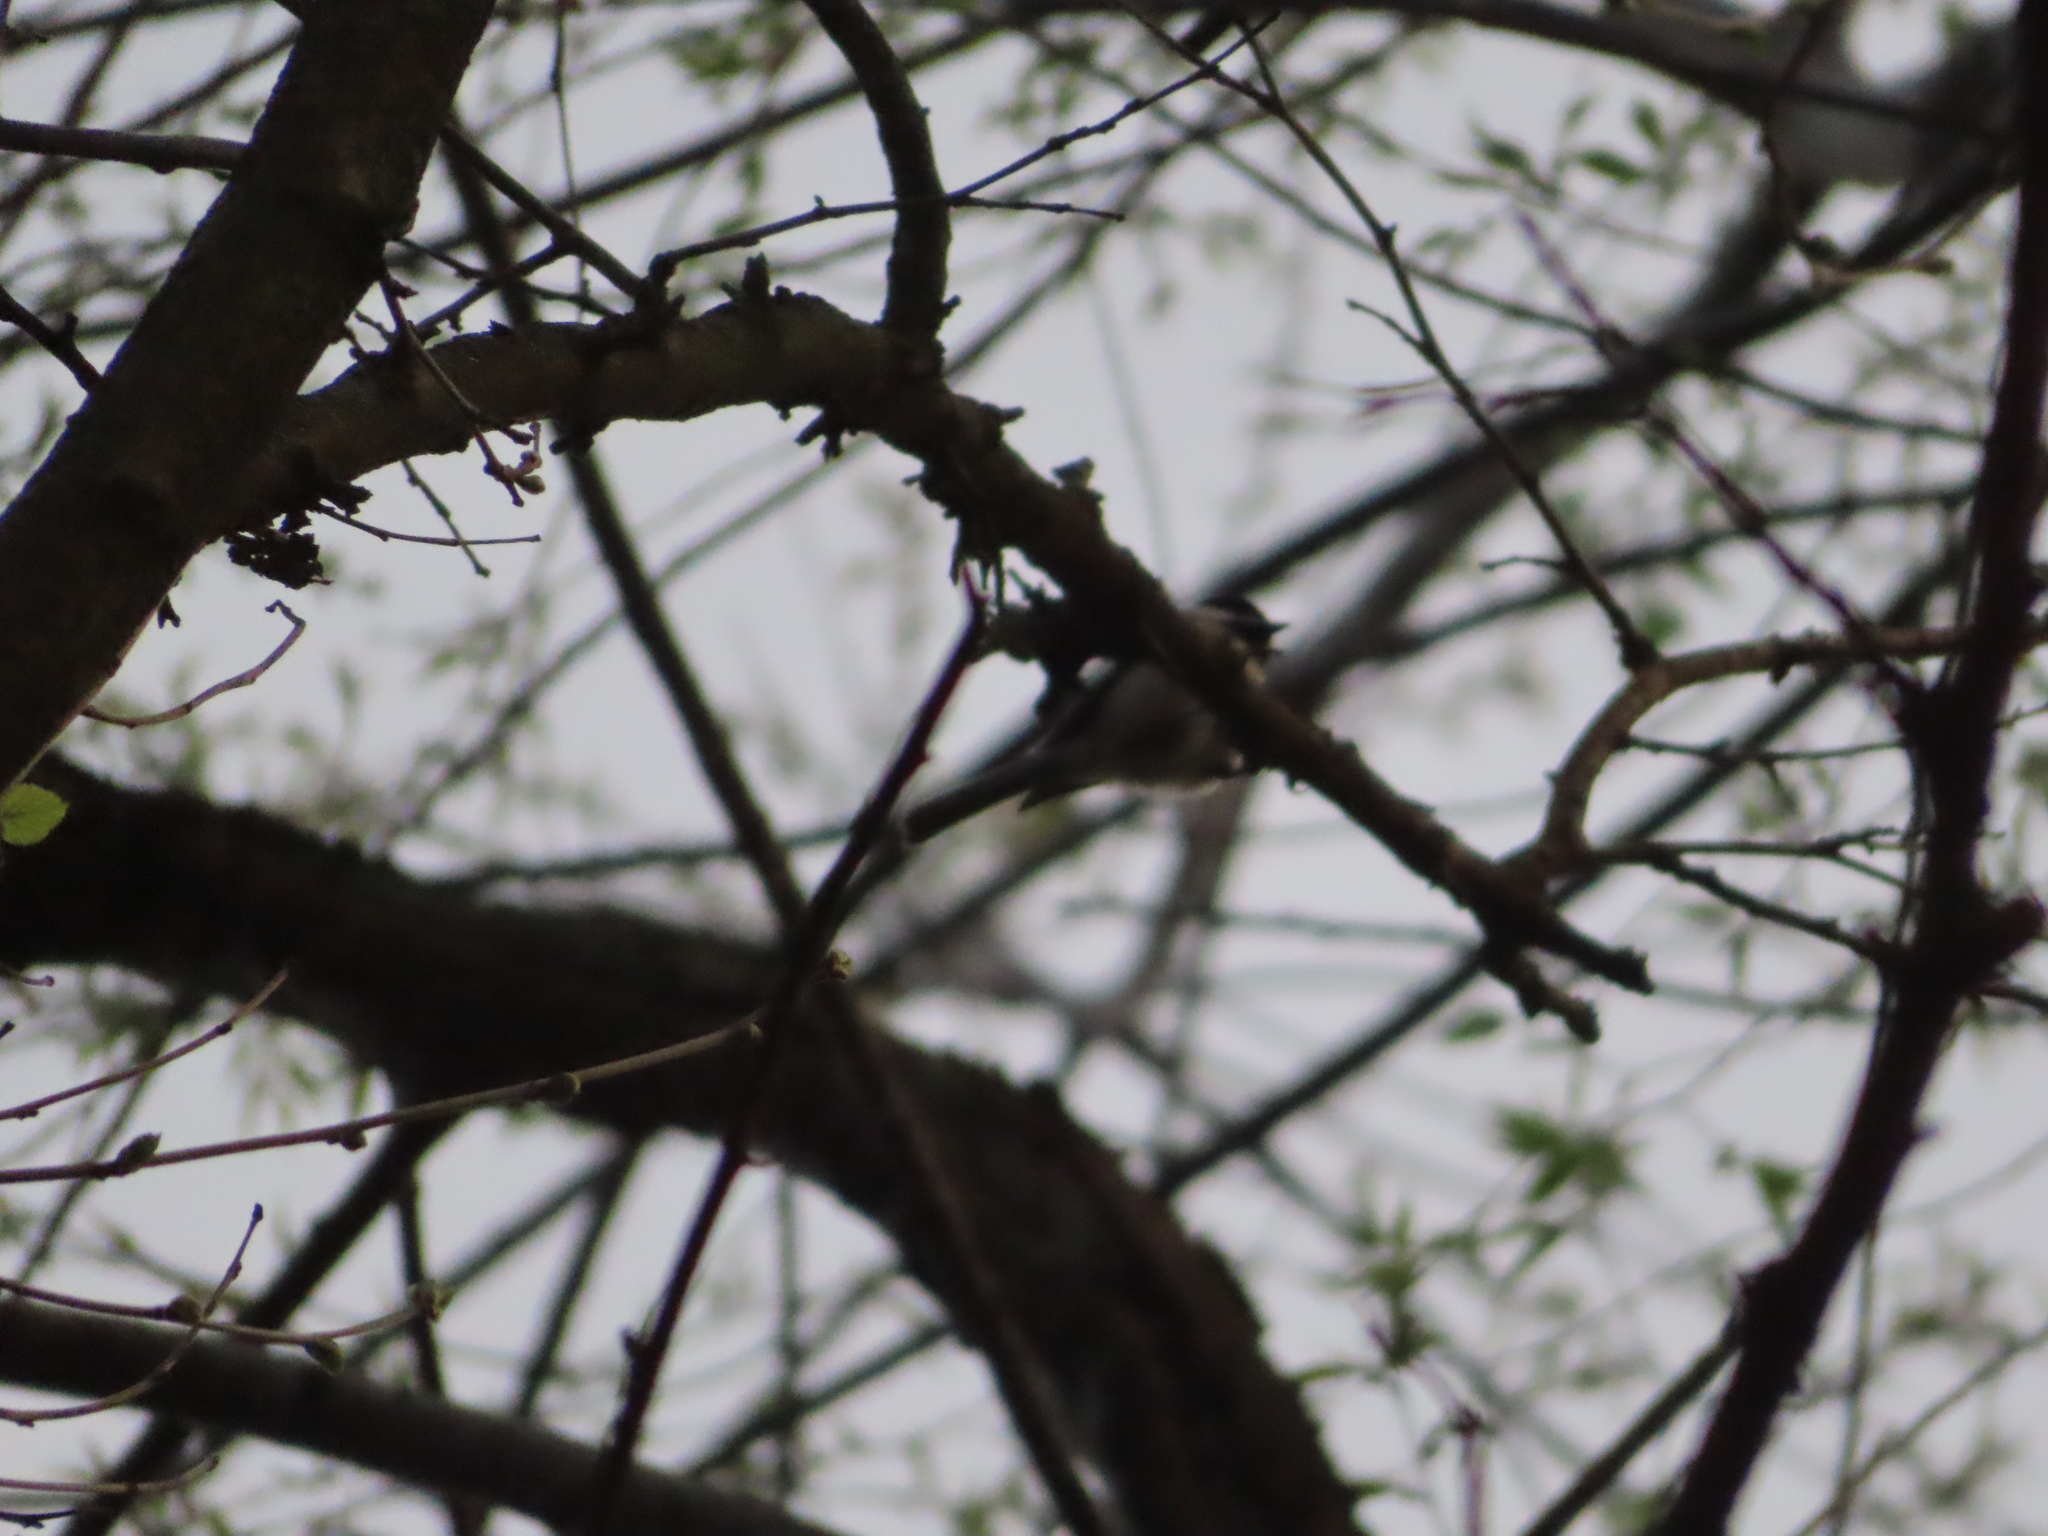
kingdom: Animalia
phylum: Chordata
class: Aves
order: Passeriformes
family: Paridae
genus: Poecile
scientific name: Poecile carolinensis
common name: Carolina chickadee
